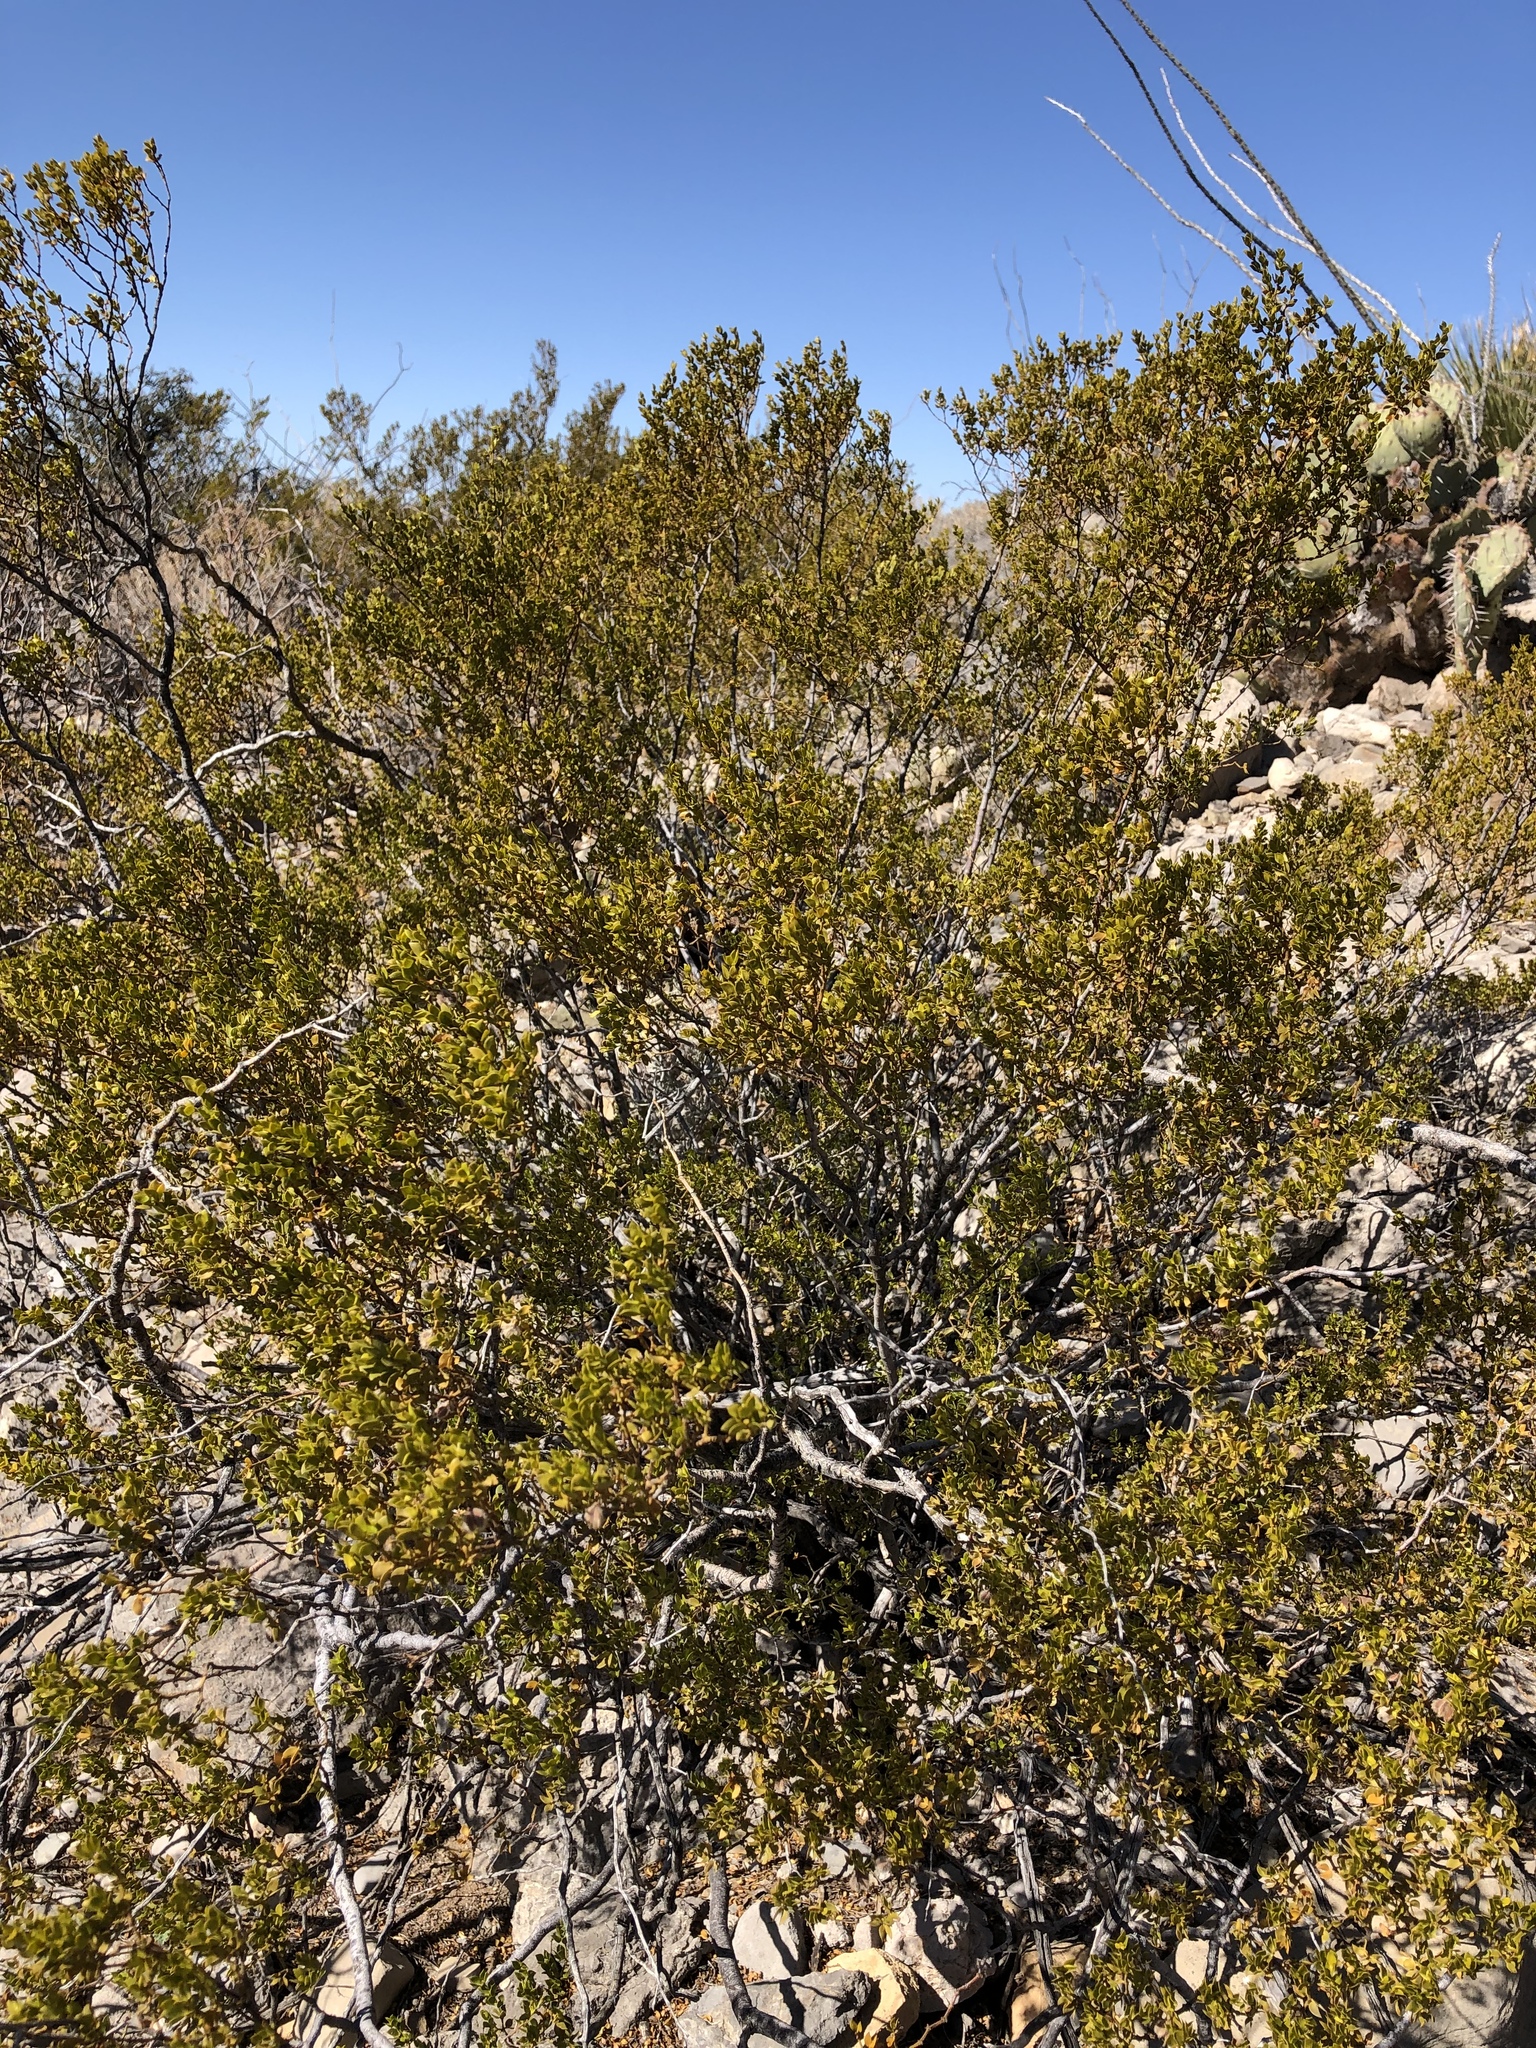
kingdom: Plantae
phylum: Tracheophyta
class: Magnoliopsida
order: Zygophyllales
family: Zygophyllaceae
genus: Larrea
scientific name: Larrea tridentata
